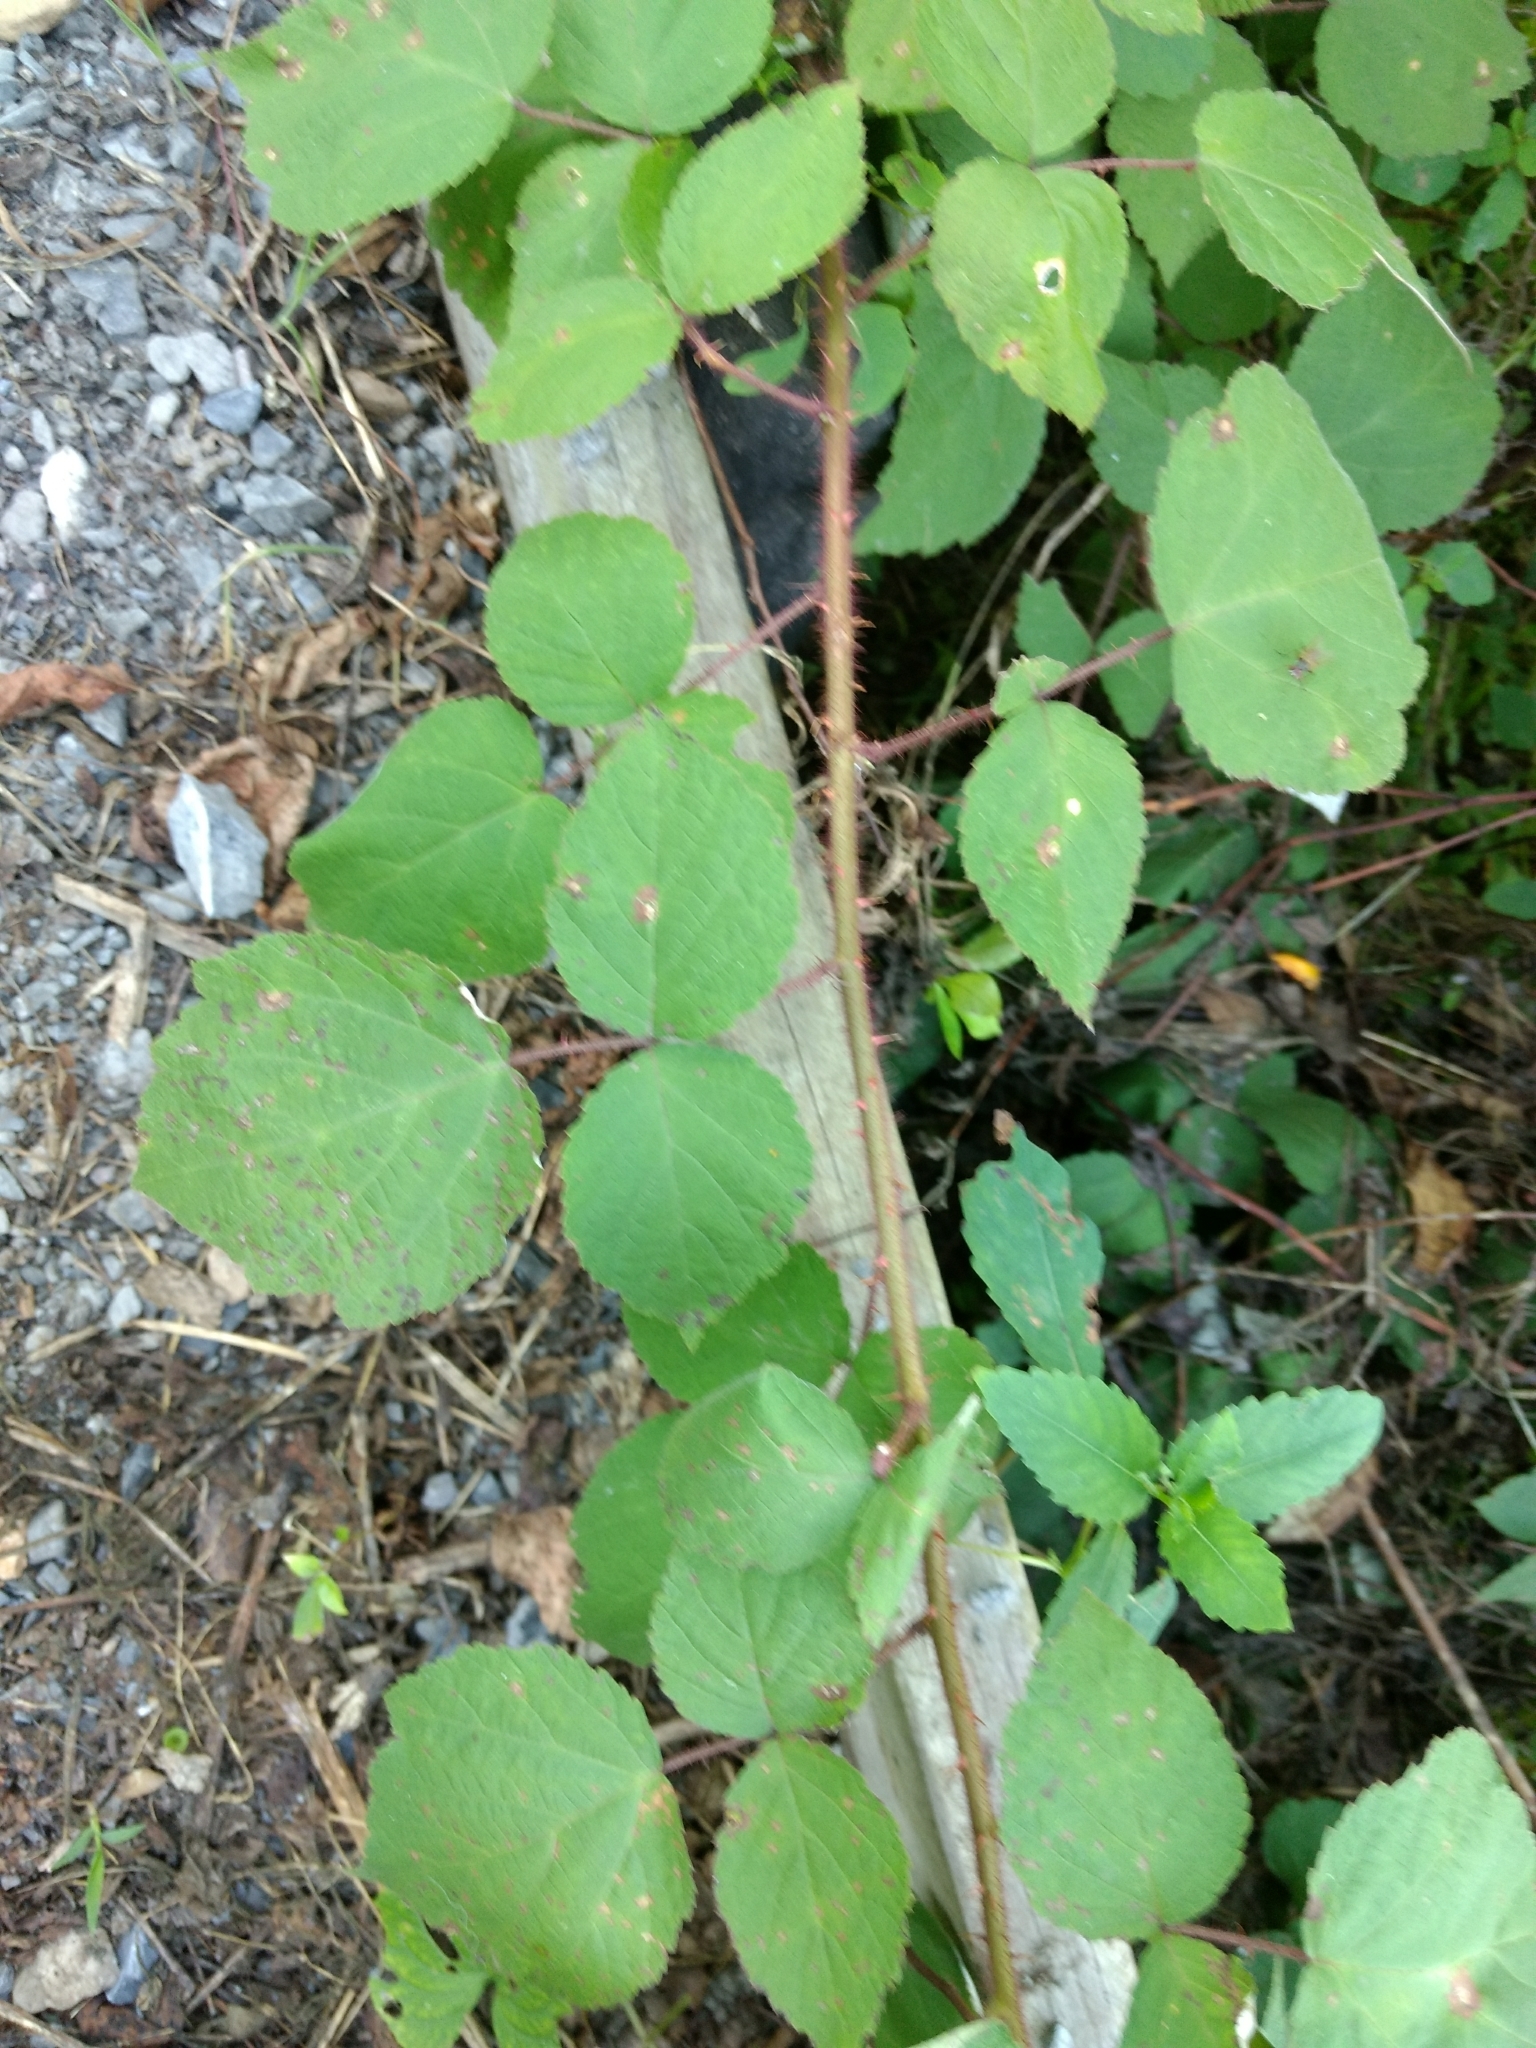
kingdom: Plantae
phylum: Tracheophyta
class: Magnoliopsida
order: Rosales
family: Rosaceae
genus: Rubus
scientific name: Rubus phoenicolasius
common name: Japanese wineberry
